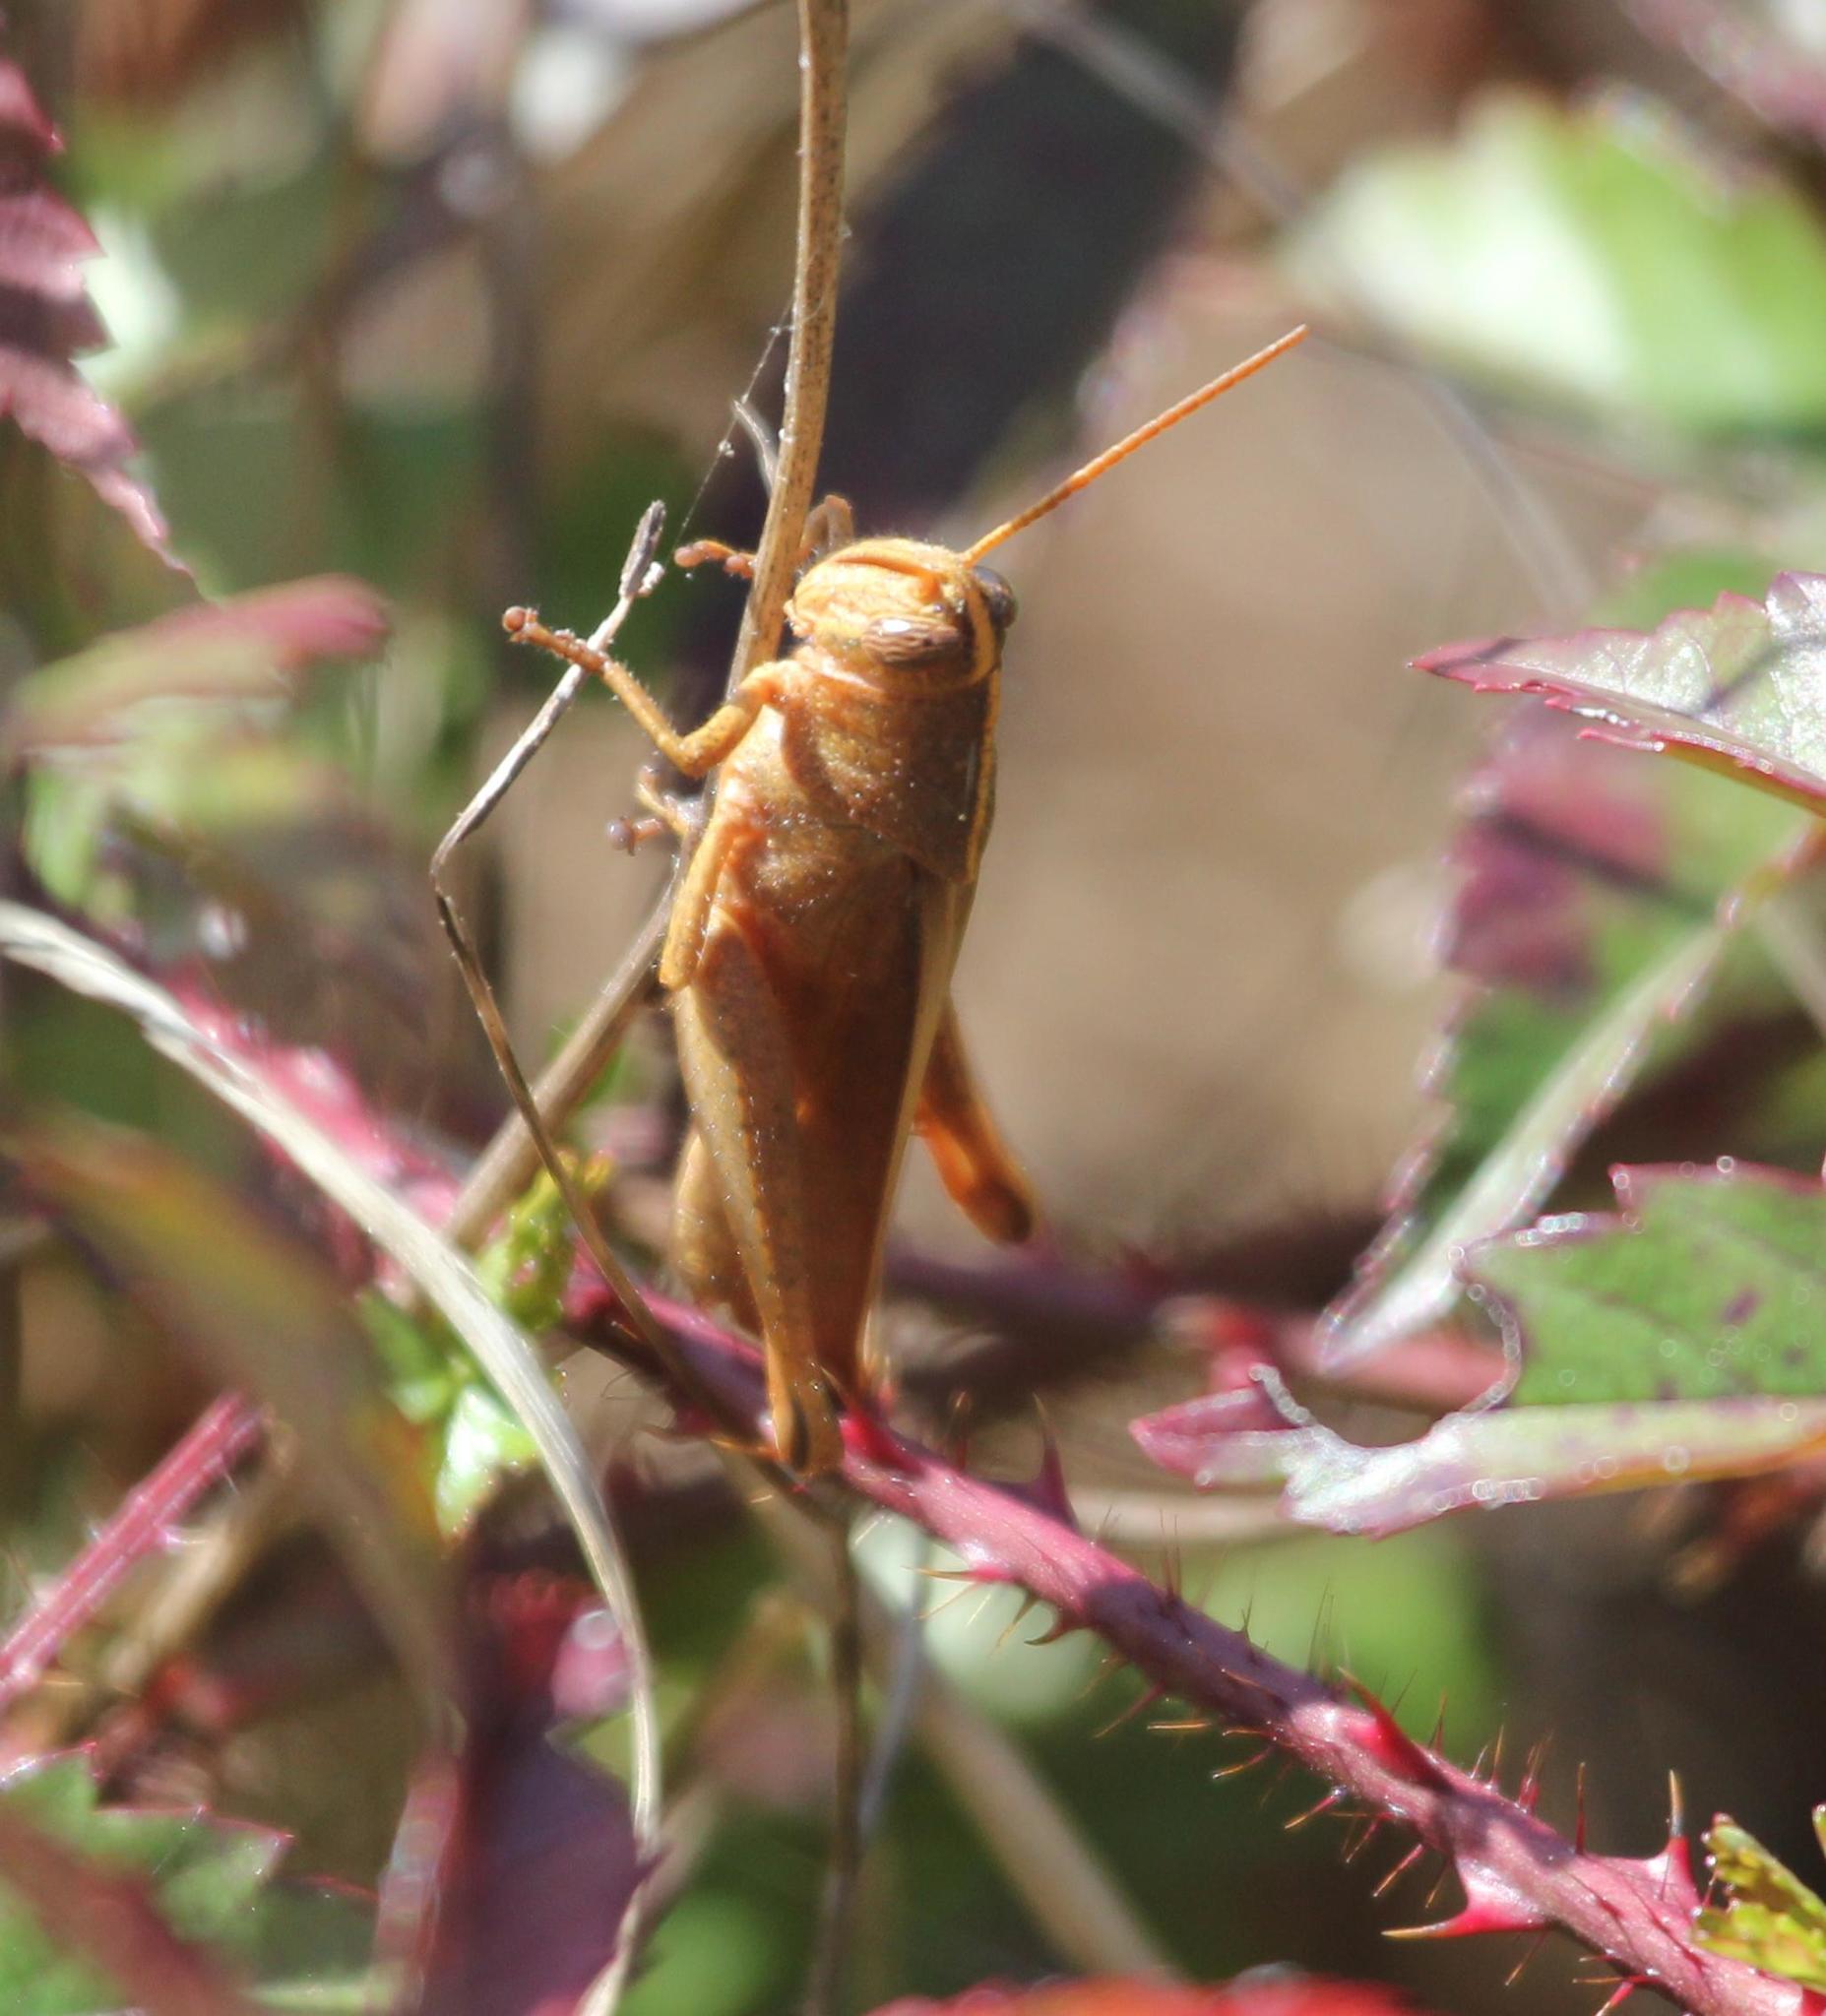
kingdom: Animalia
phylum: Arthropoda
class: Insecta
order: Orthoptera
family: Acrididae
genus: Schistocerca
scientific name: Schistocerca damnifica
